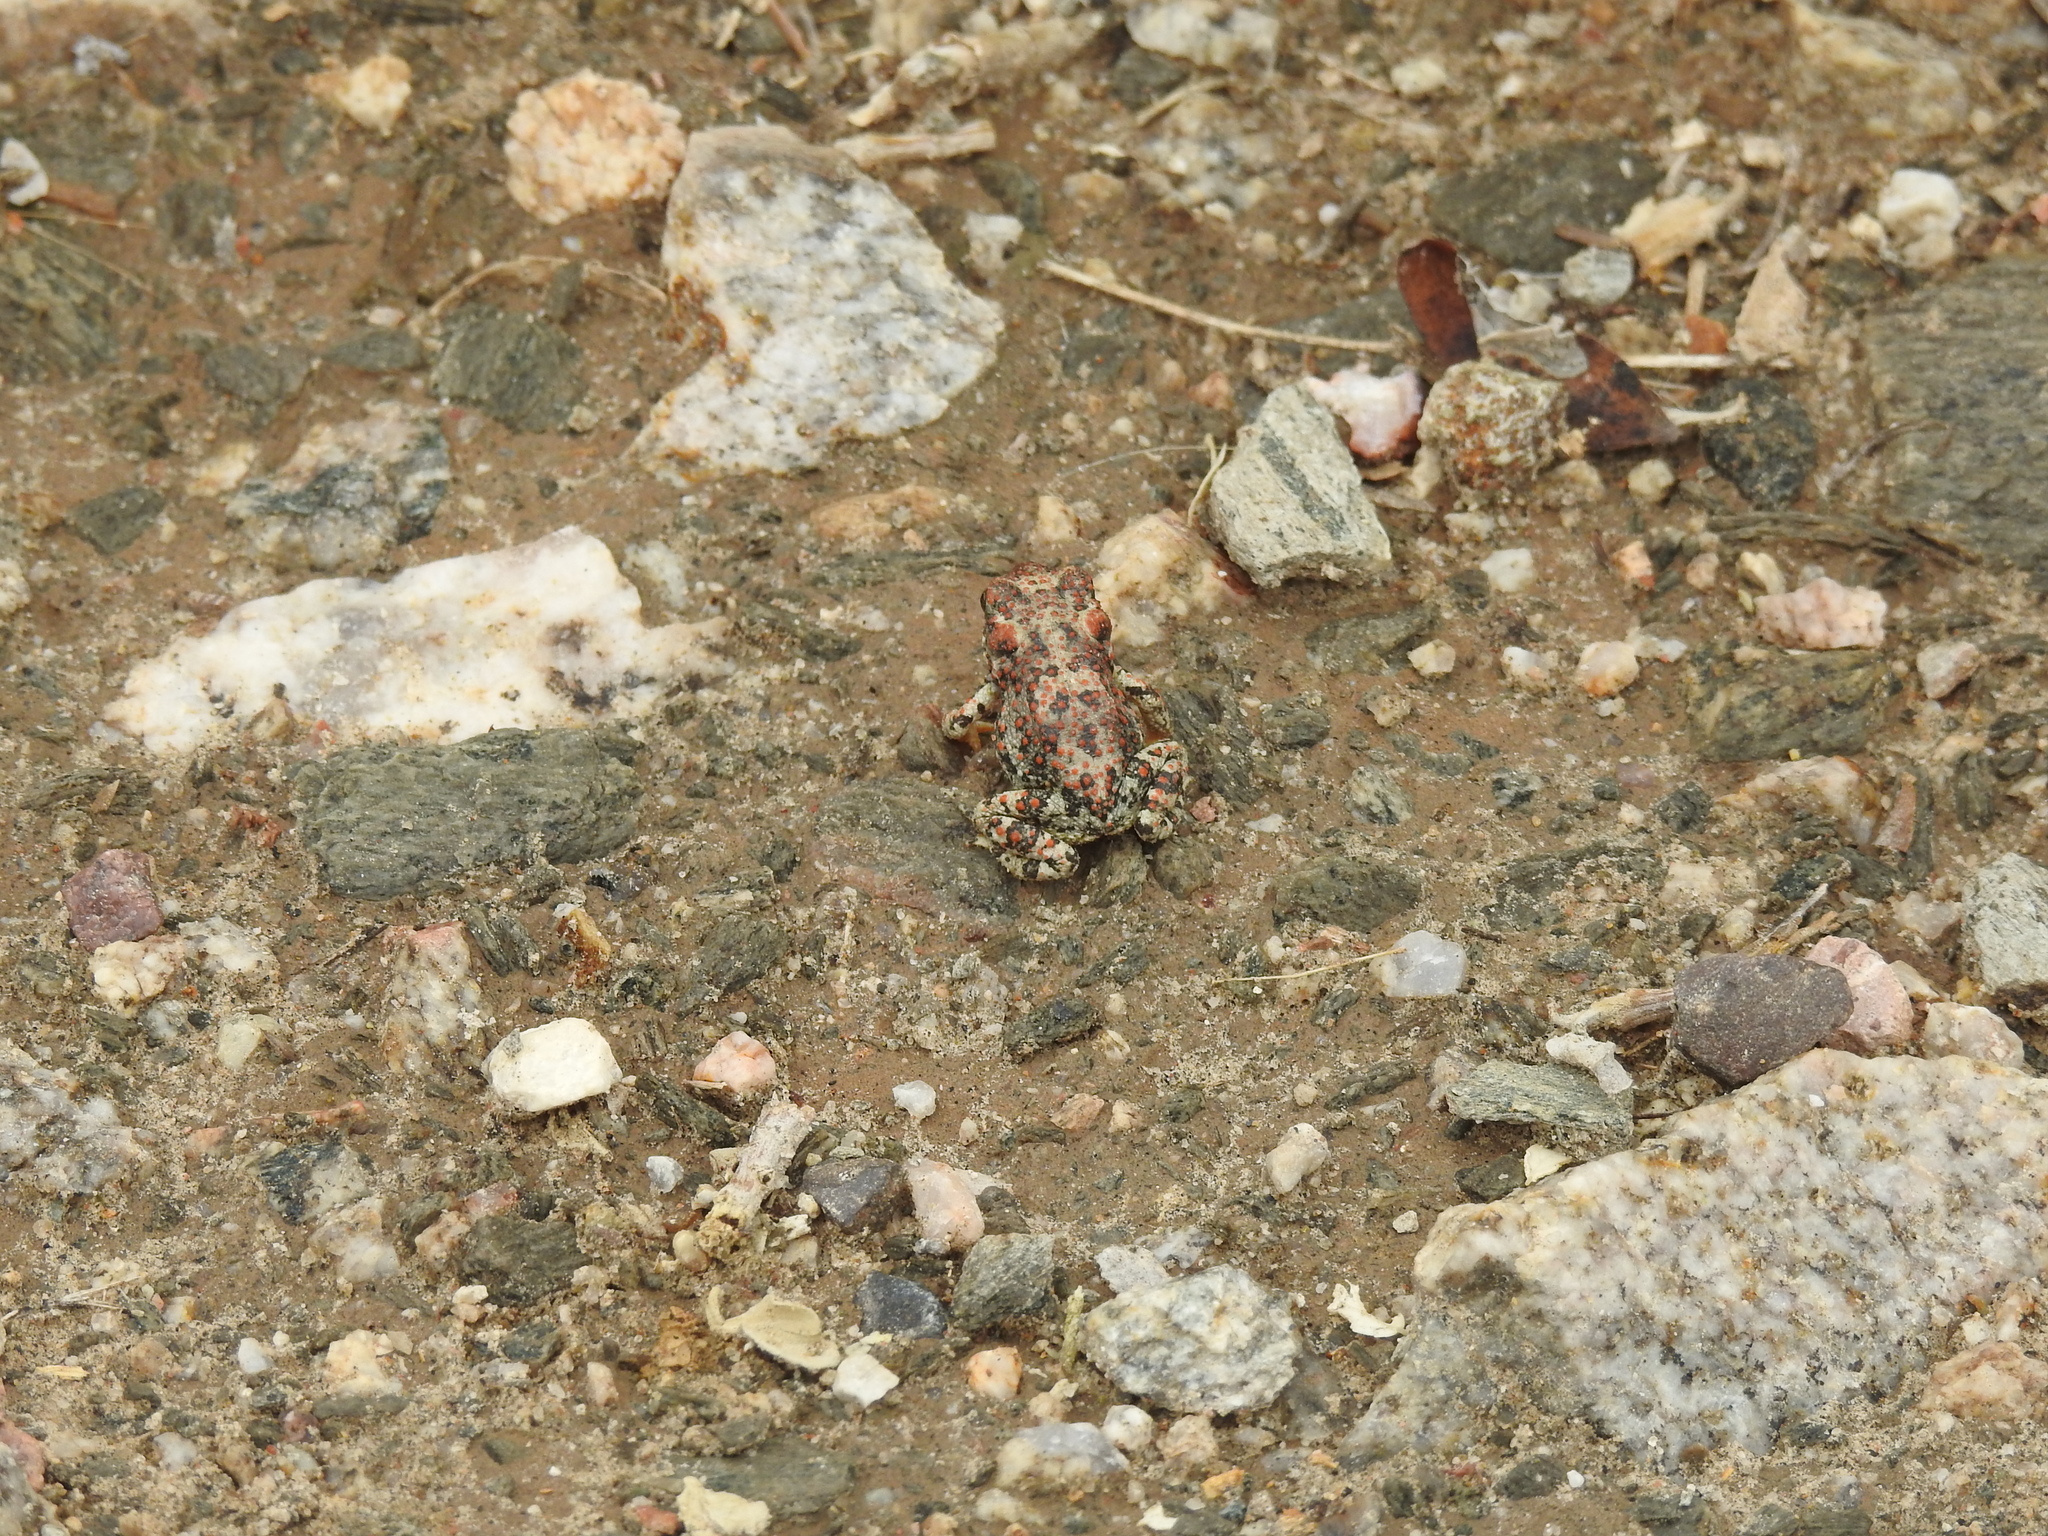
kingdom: Animalia
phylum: Chordata
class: Amphibia
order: Anura
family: Bufonidae
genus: Anaxyrus
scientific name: Anaxyrus punctatus
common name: Red-spotted toad
